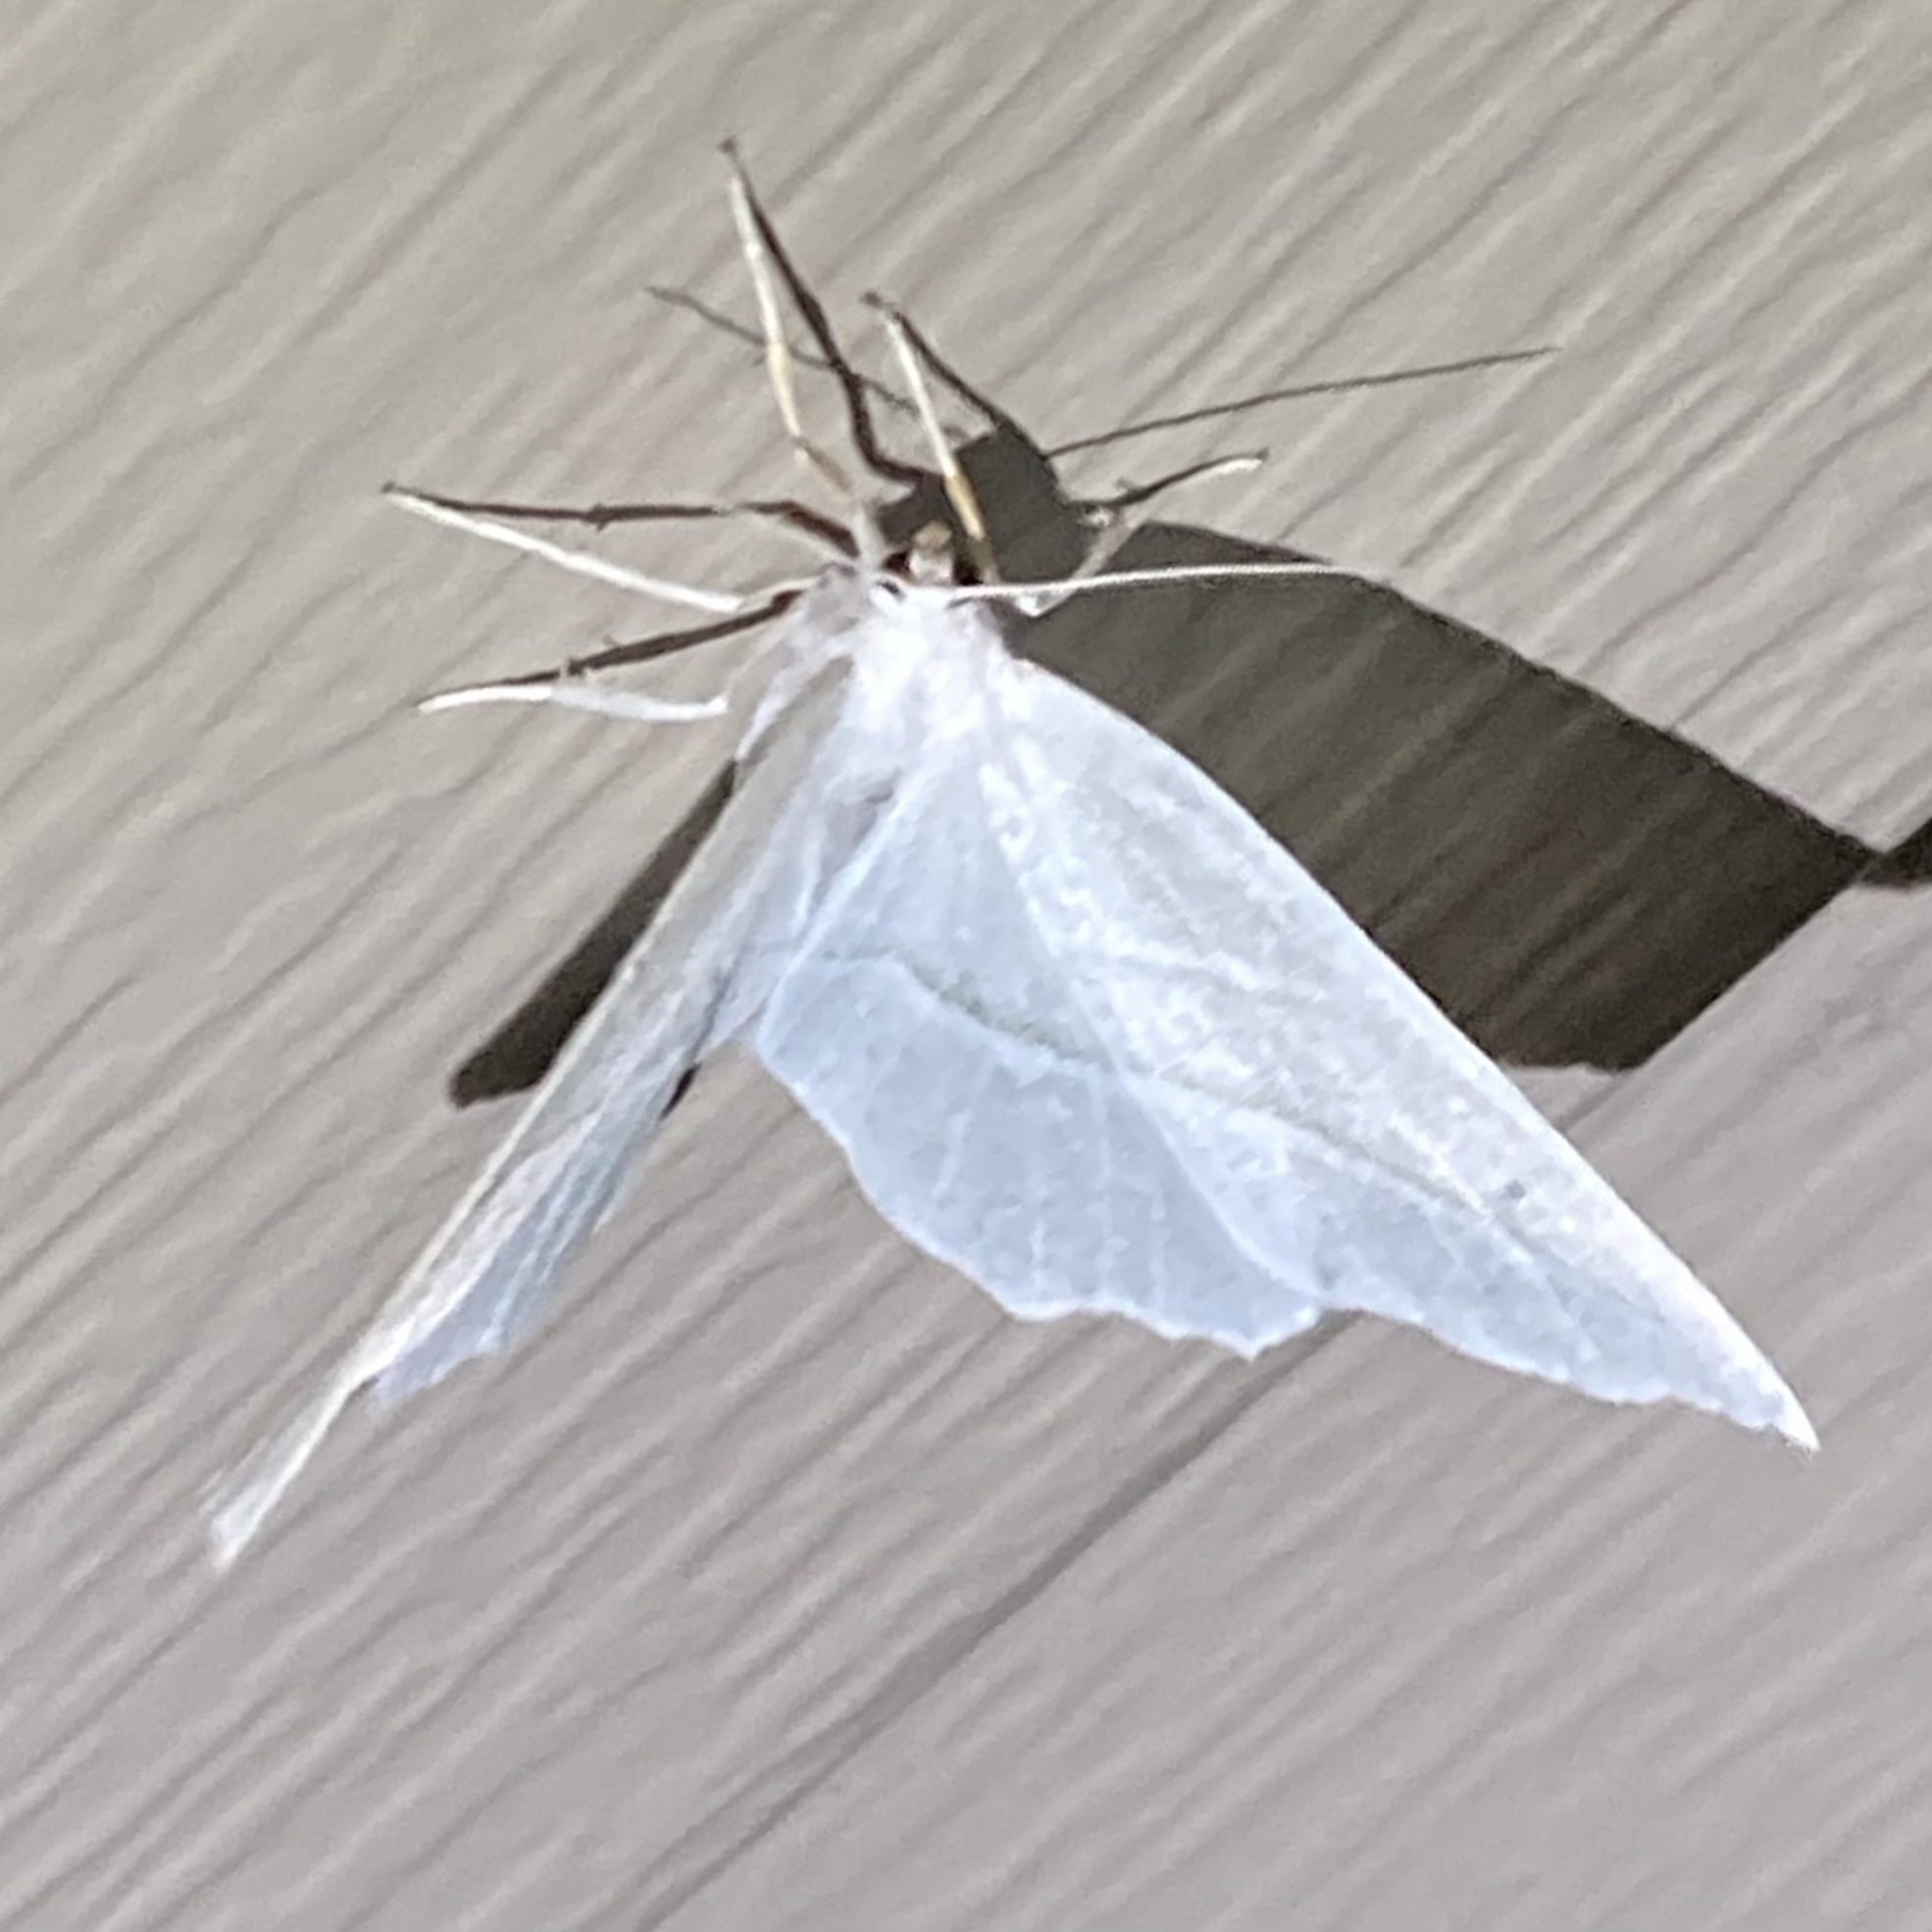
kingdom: Animalia
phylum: Arthropoda
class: Insecta
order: Lepidoptera
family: Geometridae
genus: Campaea
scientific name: Campaea perlata
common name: Fringed looper
